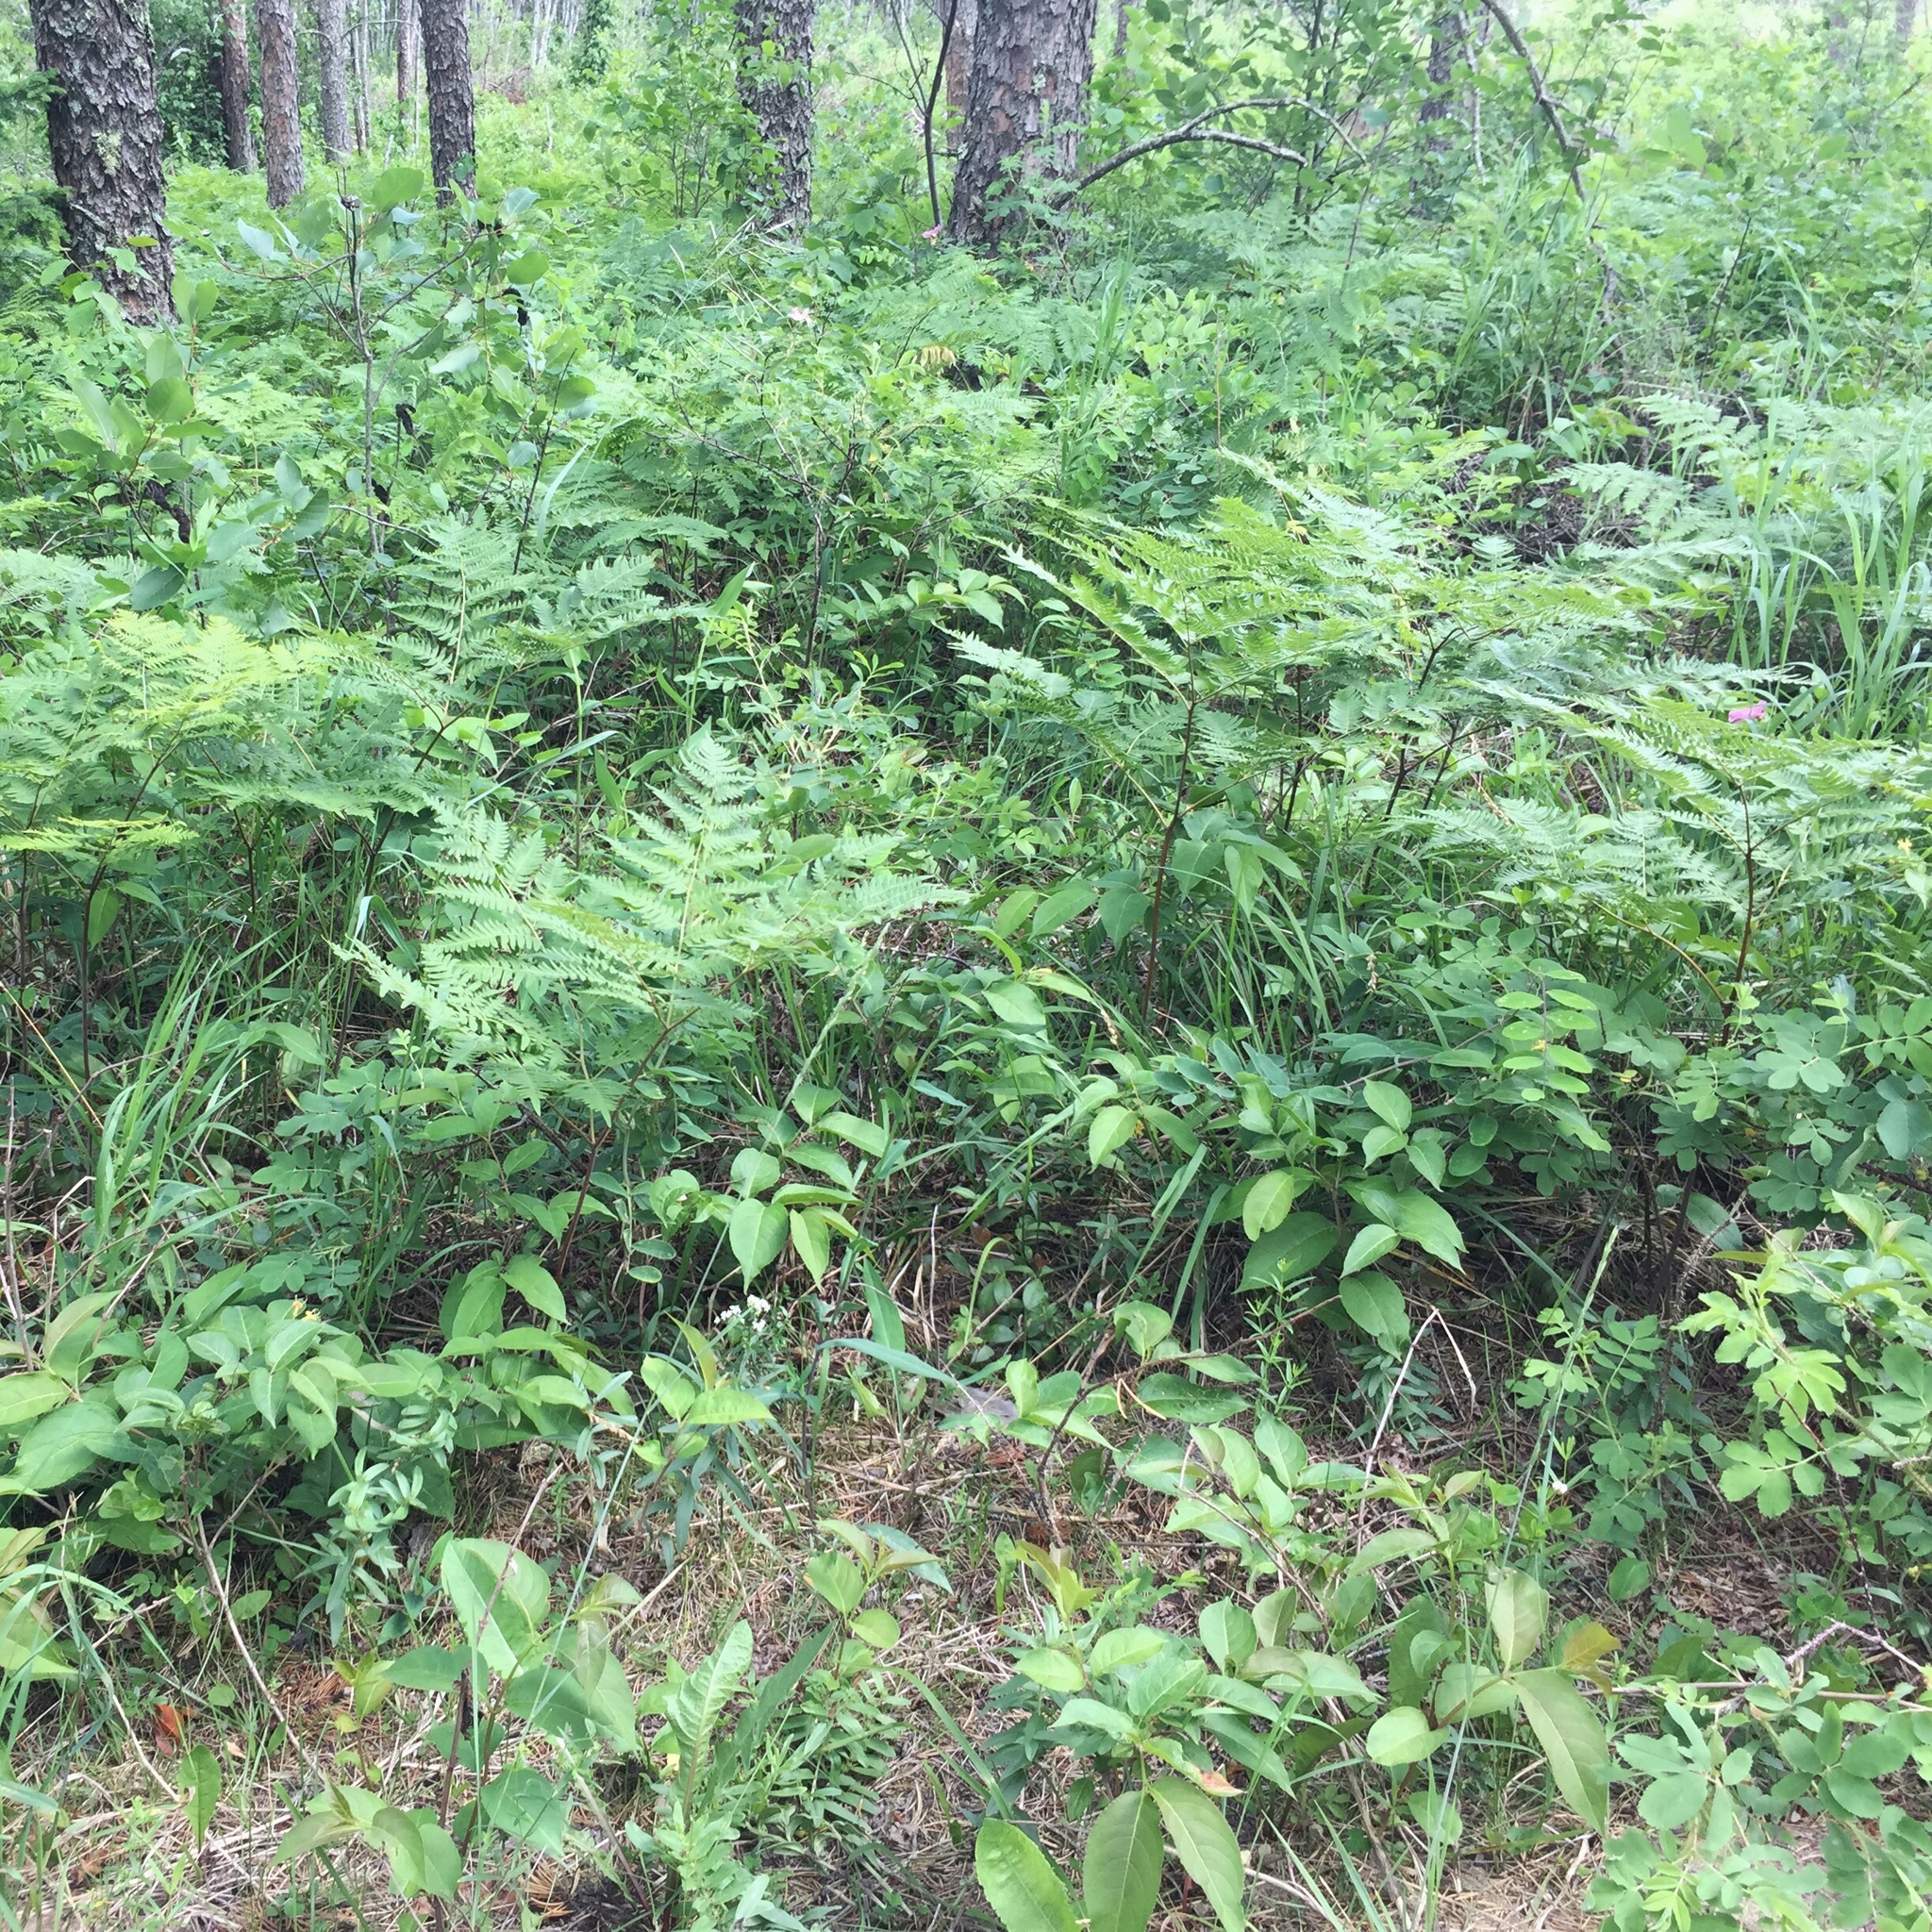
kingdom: Plantae
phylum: Tracheophyta
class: Polypodiopsida
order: Polypodiales
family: Dennstaedtiaceae
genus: Pteridium
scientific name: Pteridium aquilinum
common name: Bracken
